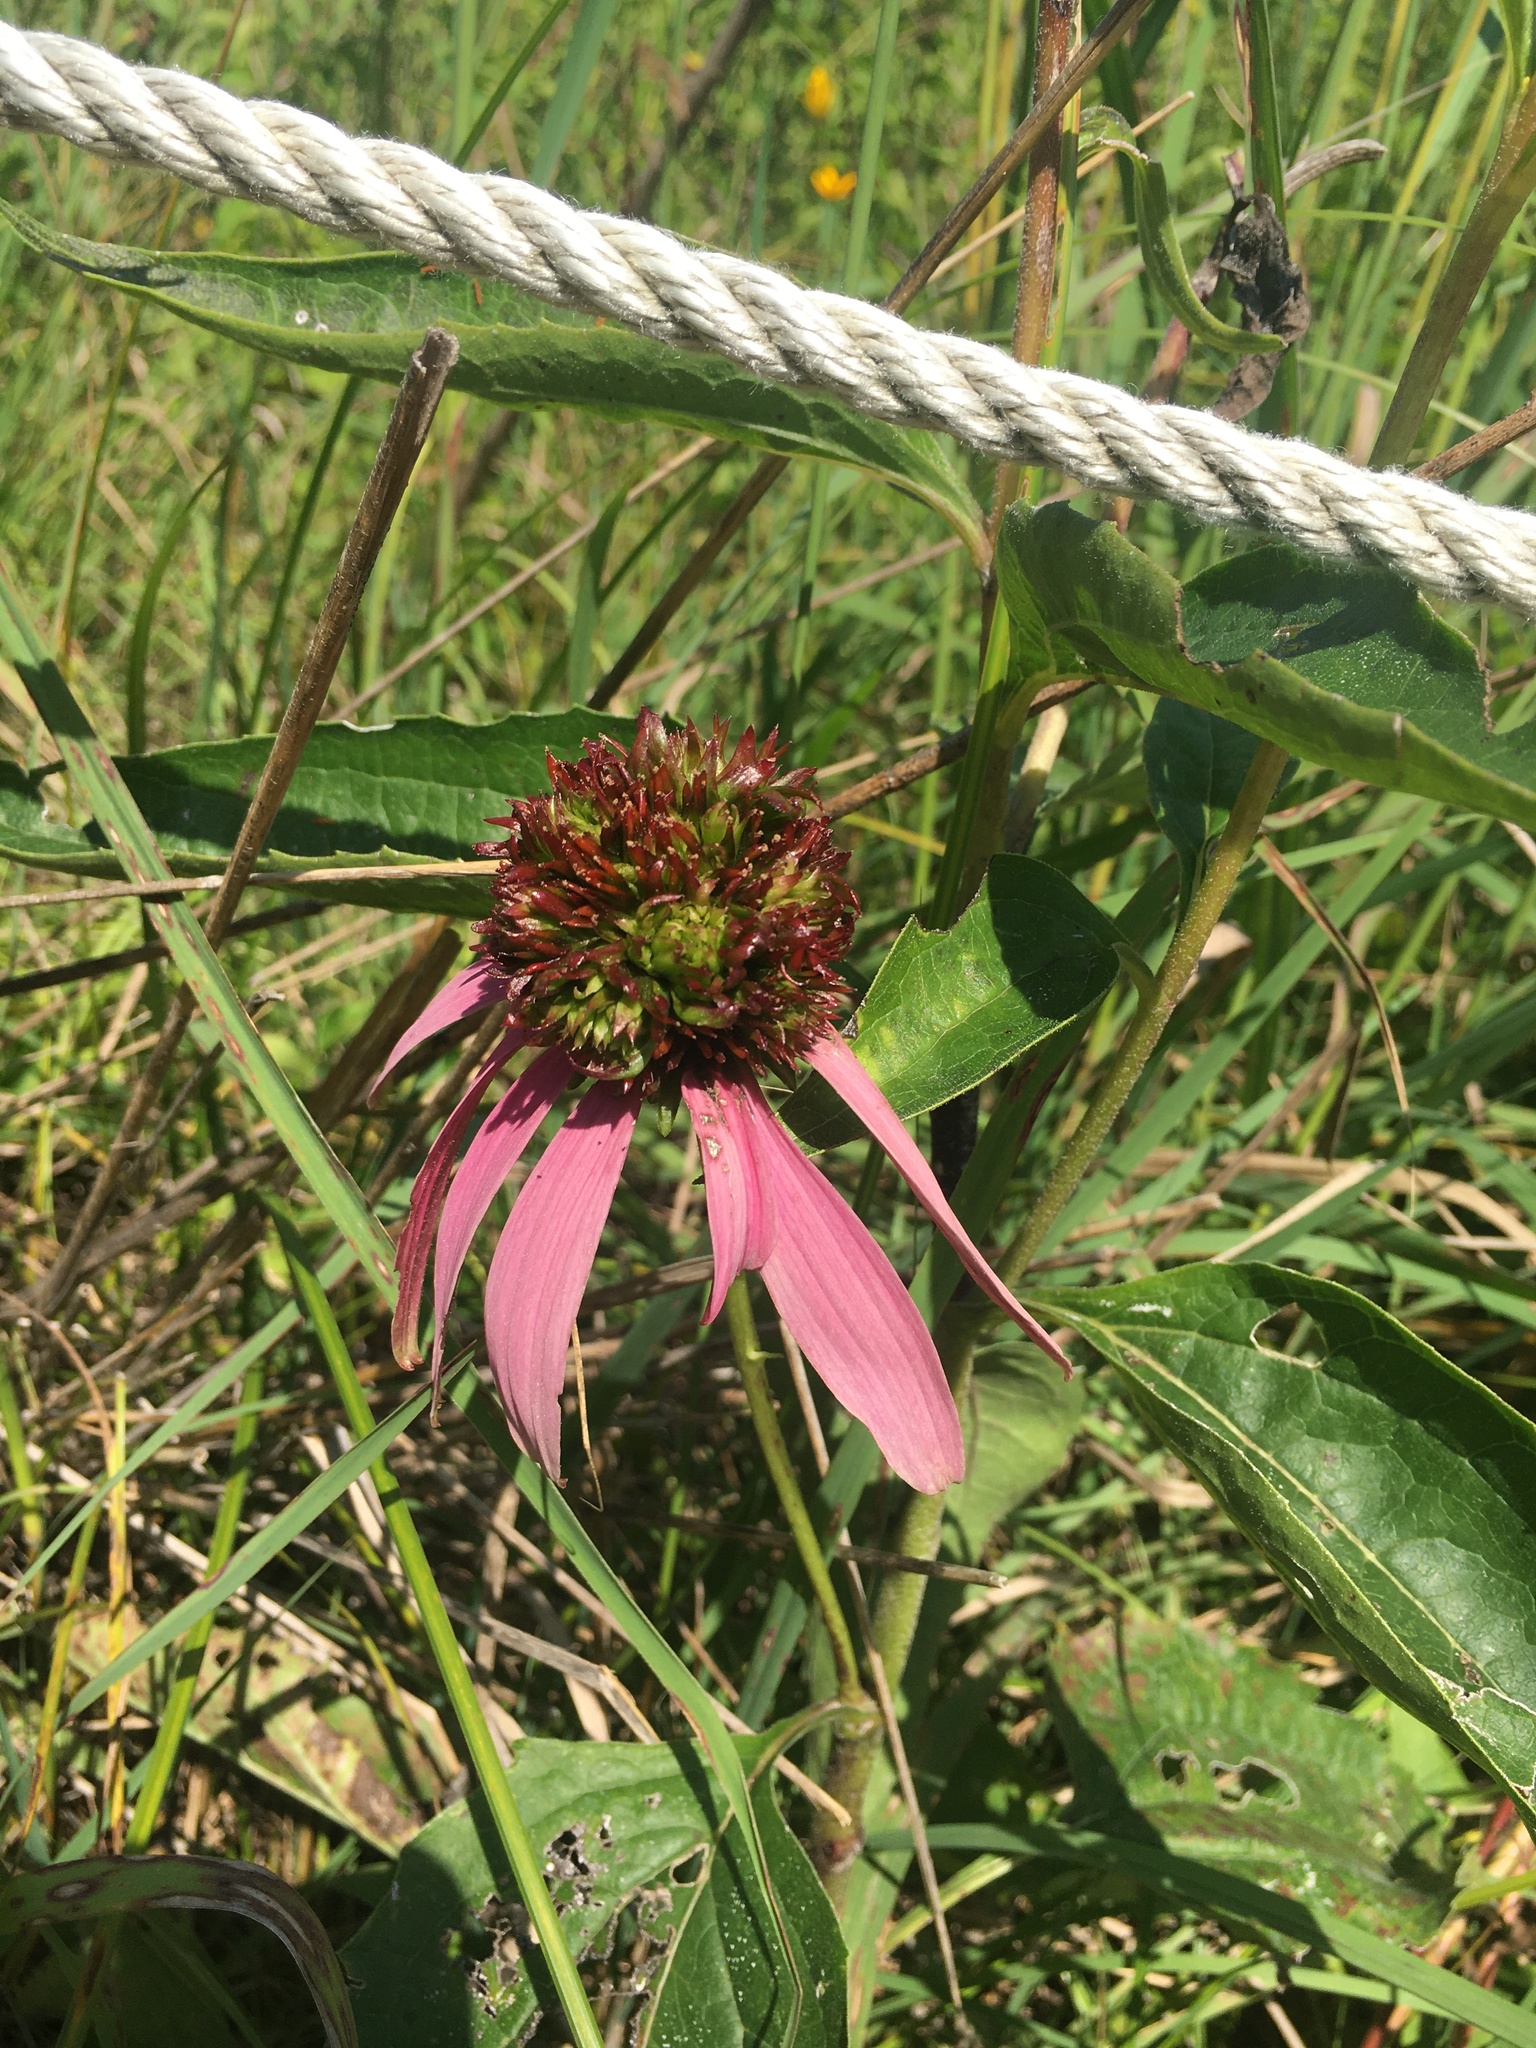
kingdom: Plantae
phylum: Tracheophyta
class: Magnoliopsida
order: Asterales
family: Asteraceae
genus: Echinacea
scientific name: Echinacea purpurea
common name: Broad-leaved purple coneflower
